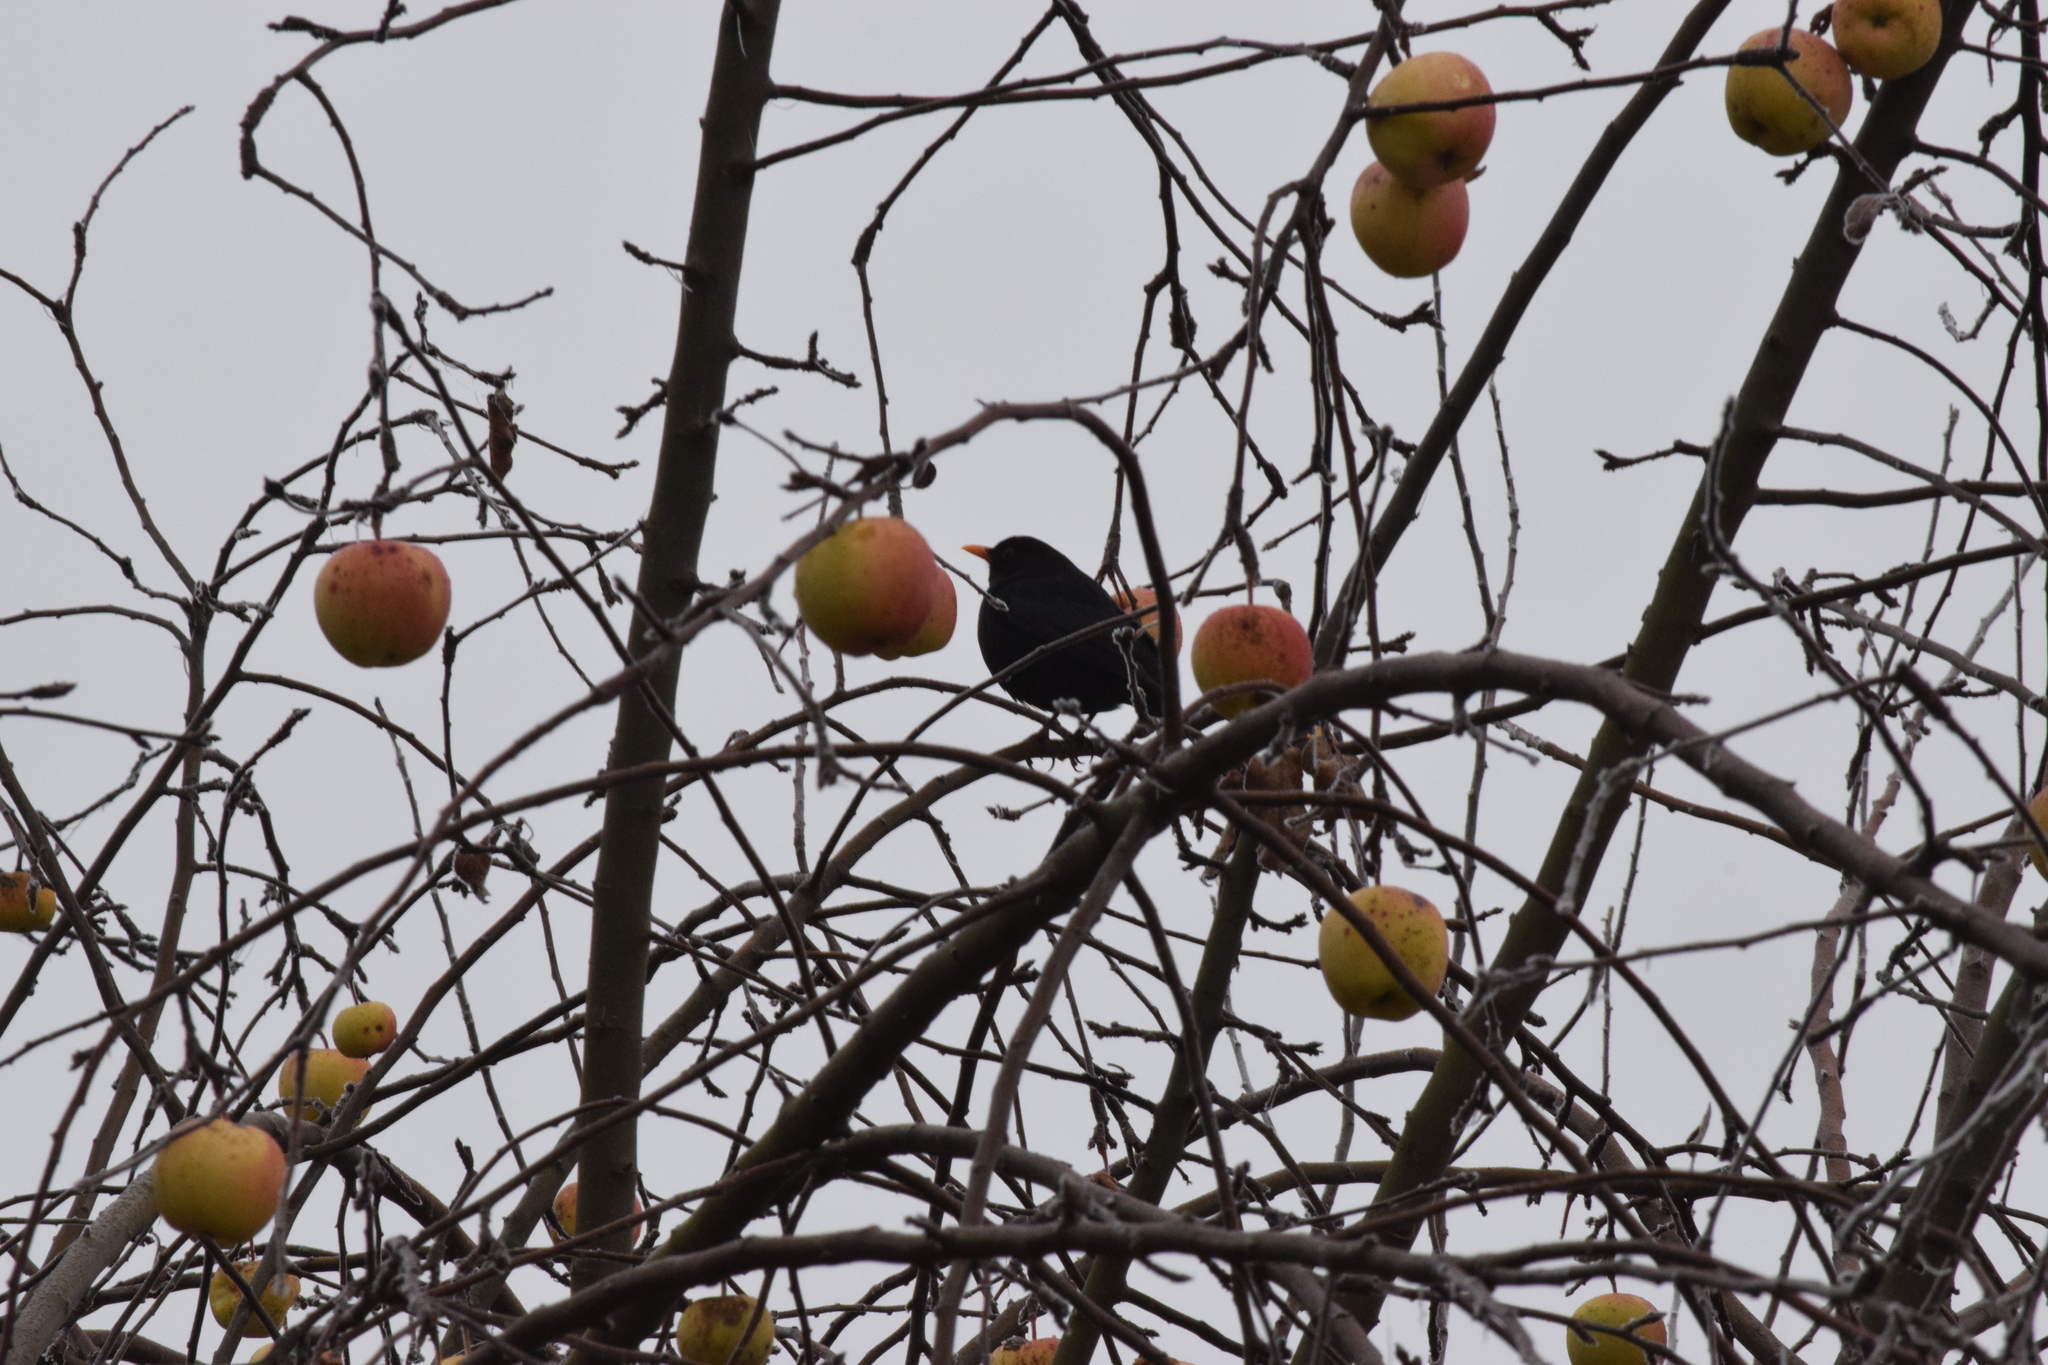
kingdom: Animalia
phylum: Chordata
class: Aves
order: Passeriformes
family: Turdidae
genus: Turdus
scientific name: Turdus merula
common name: Common blackbird
